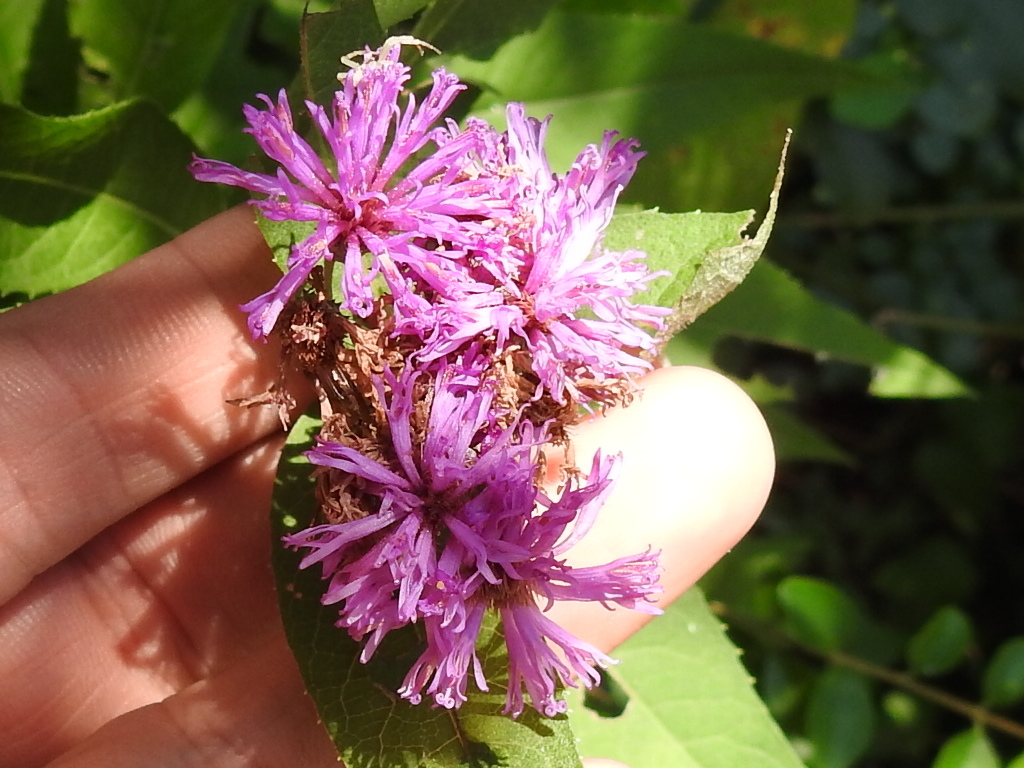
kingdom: Plantae
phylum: Tracheophyta
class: Magnoliopsida
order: Asterales
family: Asteraceae
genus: Vernonia
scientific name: Vernonia baldwinii
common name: Western ironweed
